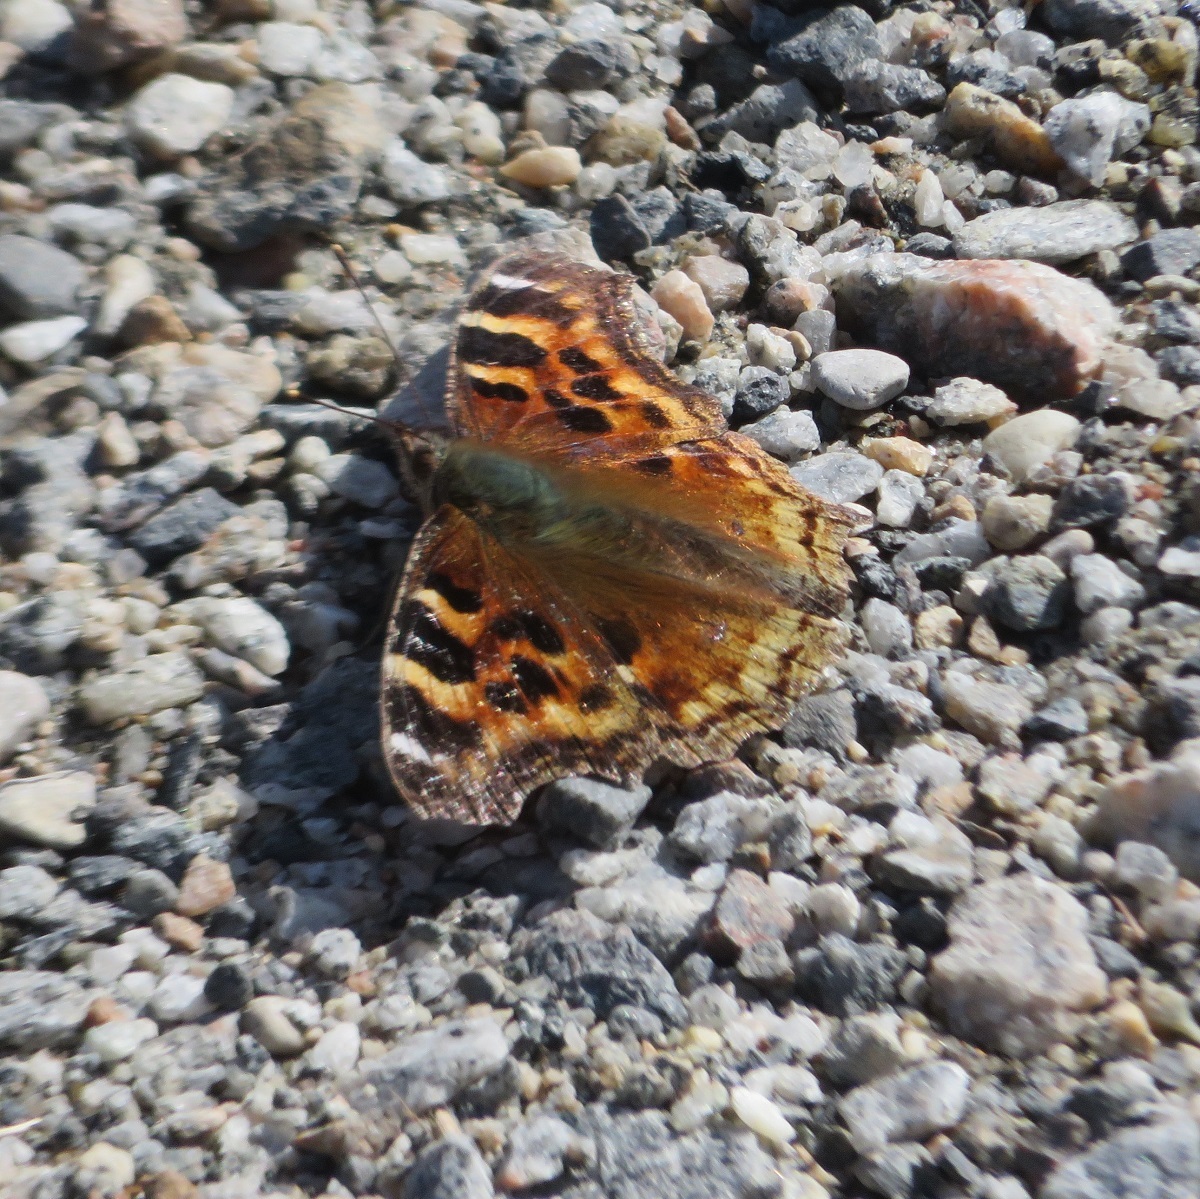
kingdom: Animalia
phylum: Arthropoda
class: Insecta
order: Lepidoptera
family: Nymphalidae
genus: Polygonia
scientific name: Polygonia vaualbum
